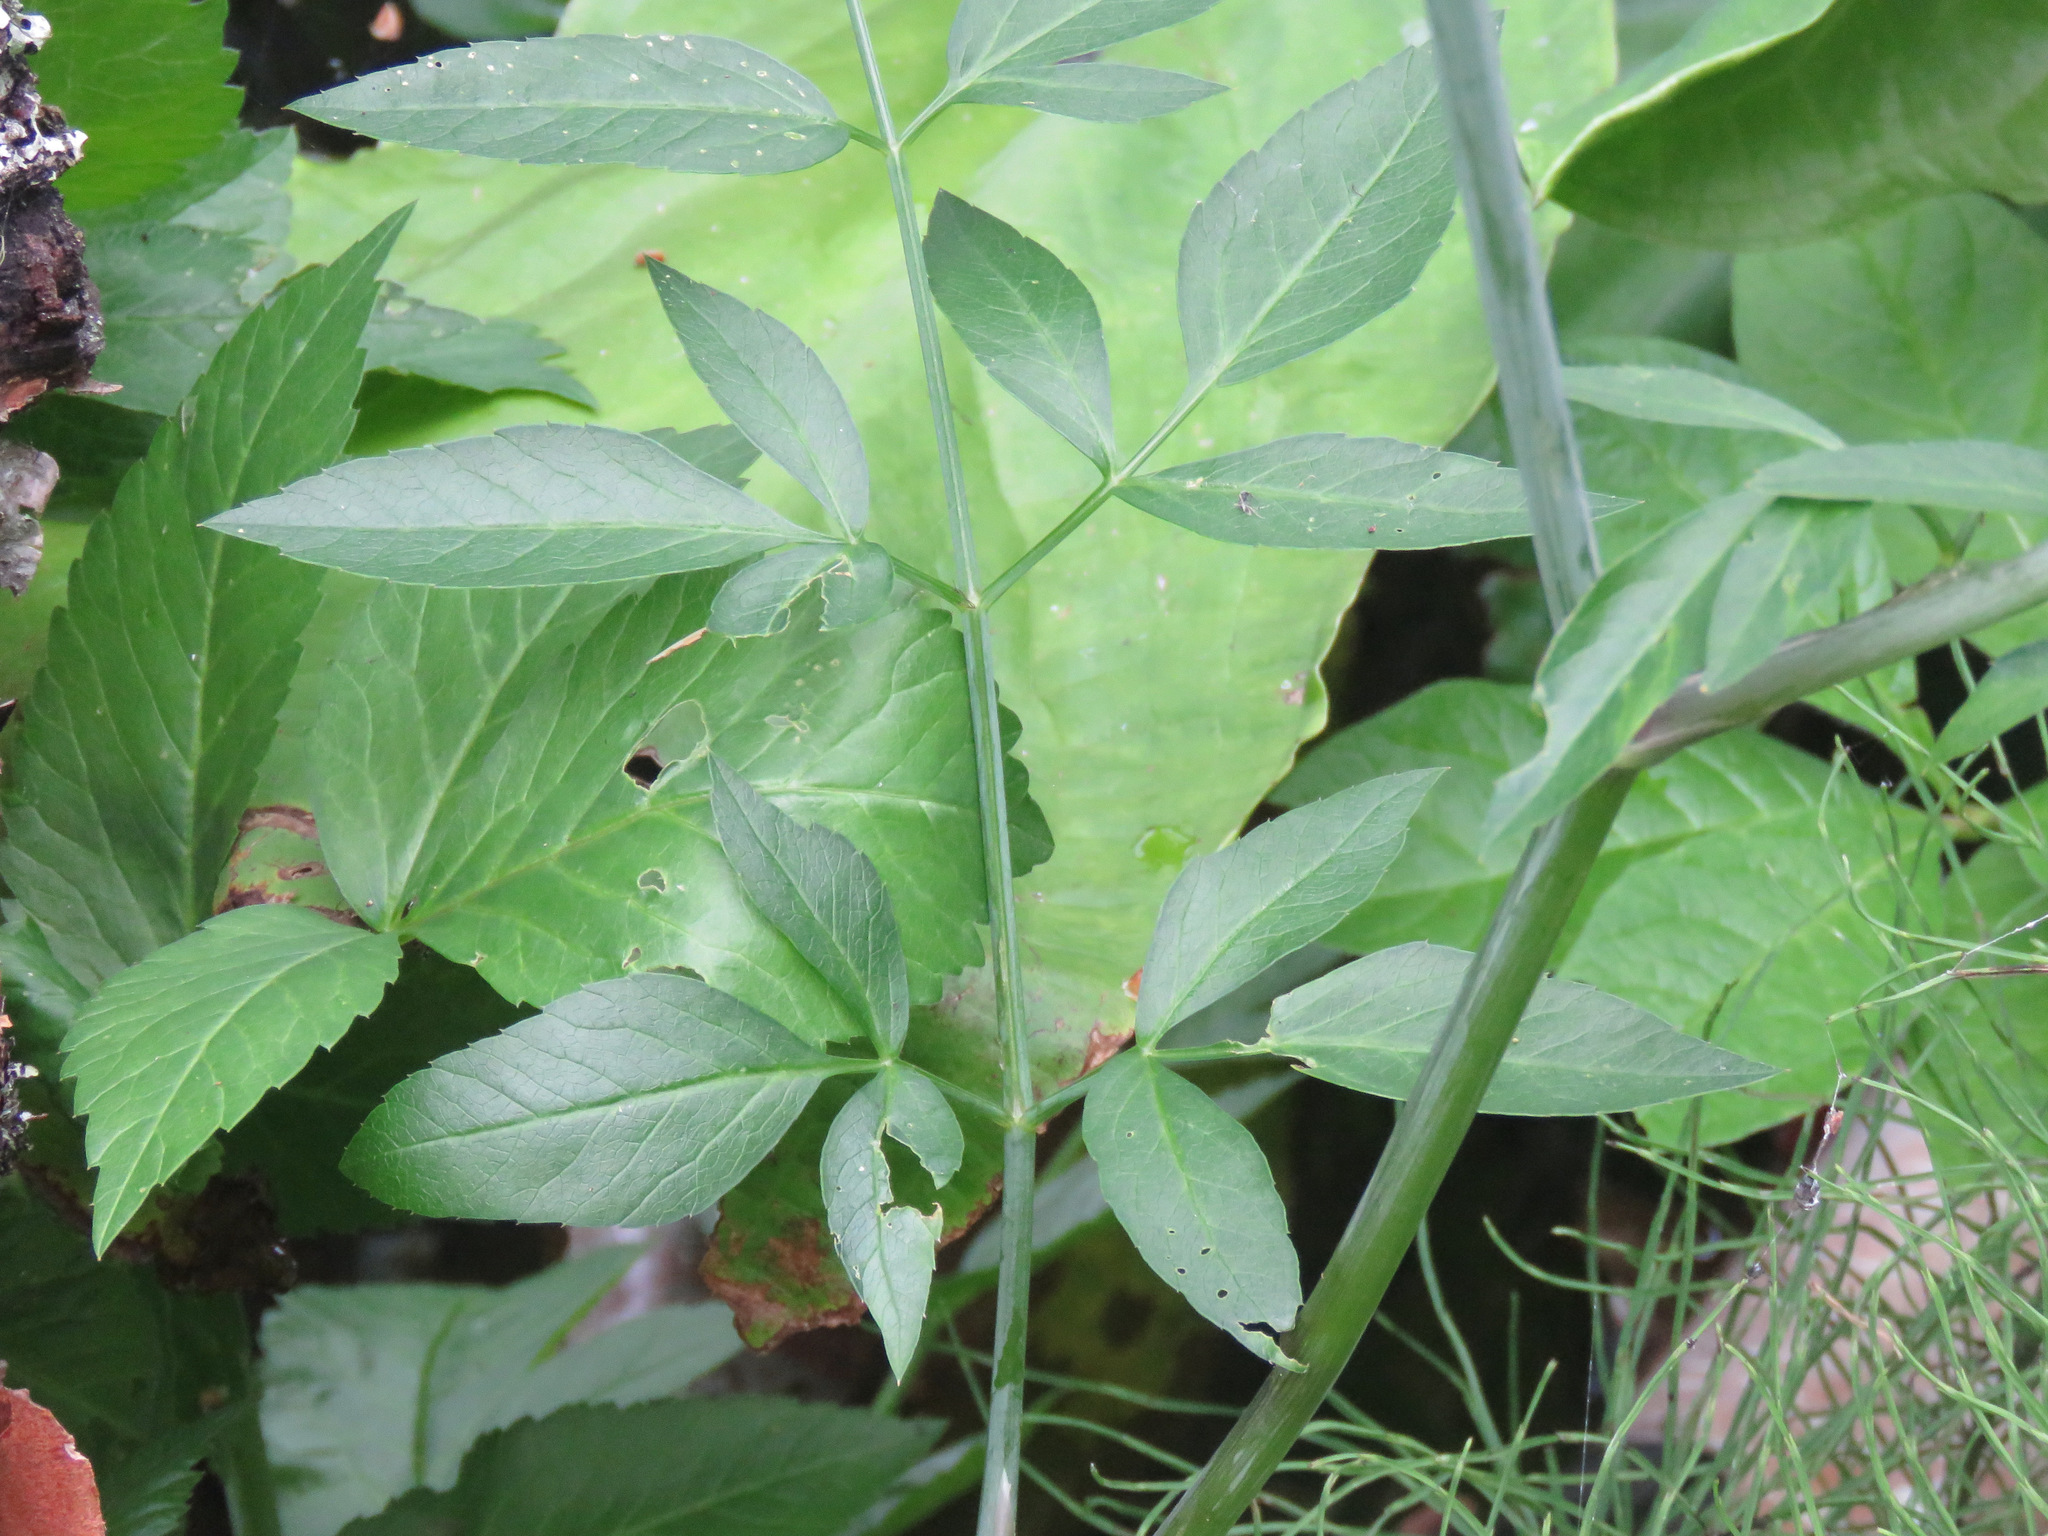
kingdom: Plantae
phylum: Tracheophyta
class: Magnoliopsida
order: Apiales
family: Apiaceae
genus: Cicuta
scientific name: Cicuta douglasii
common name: Western water-hemlock
